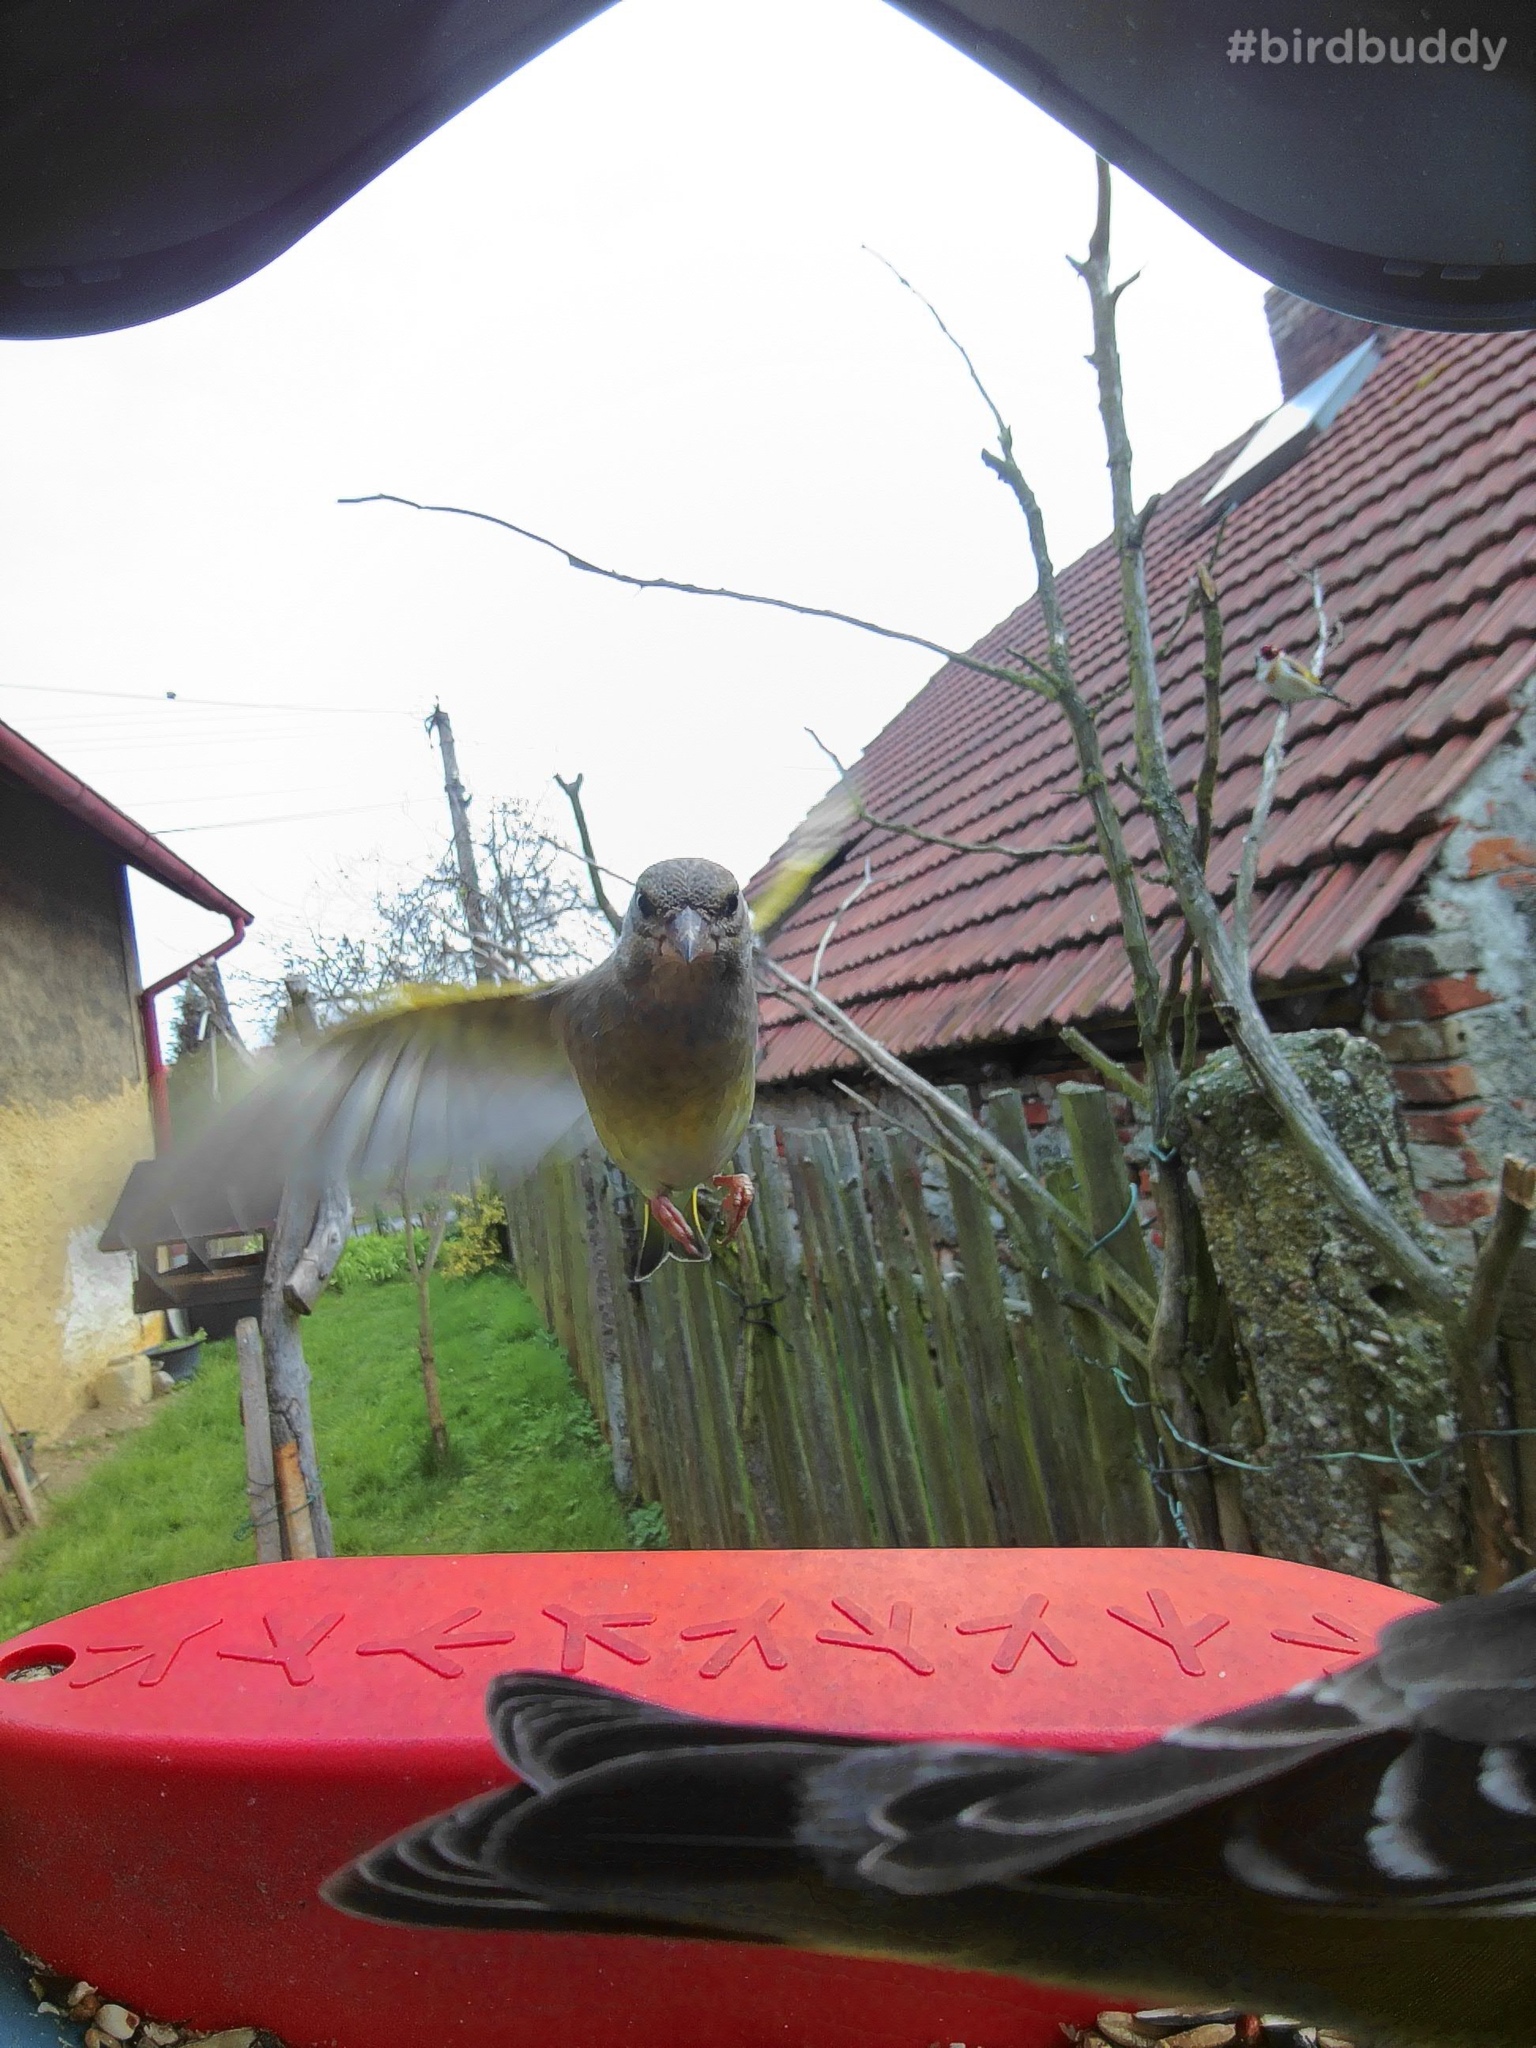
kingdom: Plantae
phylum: Tracheophyta
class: Liliopsida
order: Poales
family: Poaceae
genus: Chloris
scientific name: Chloris chloris
